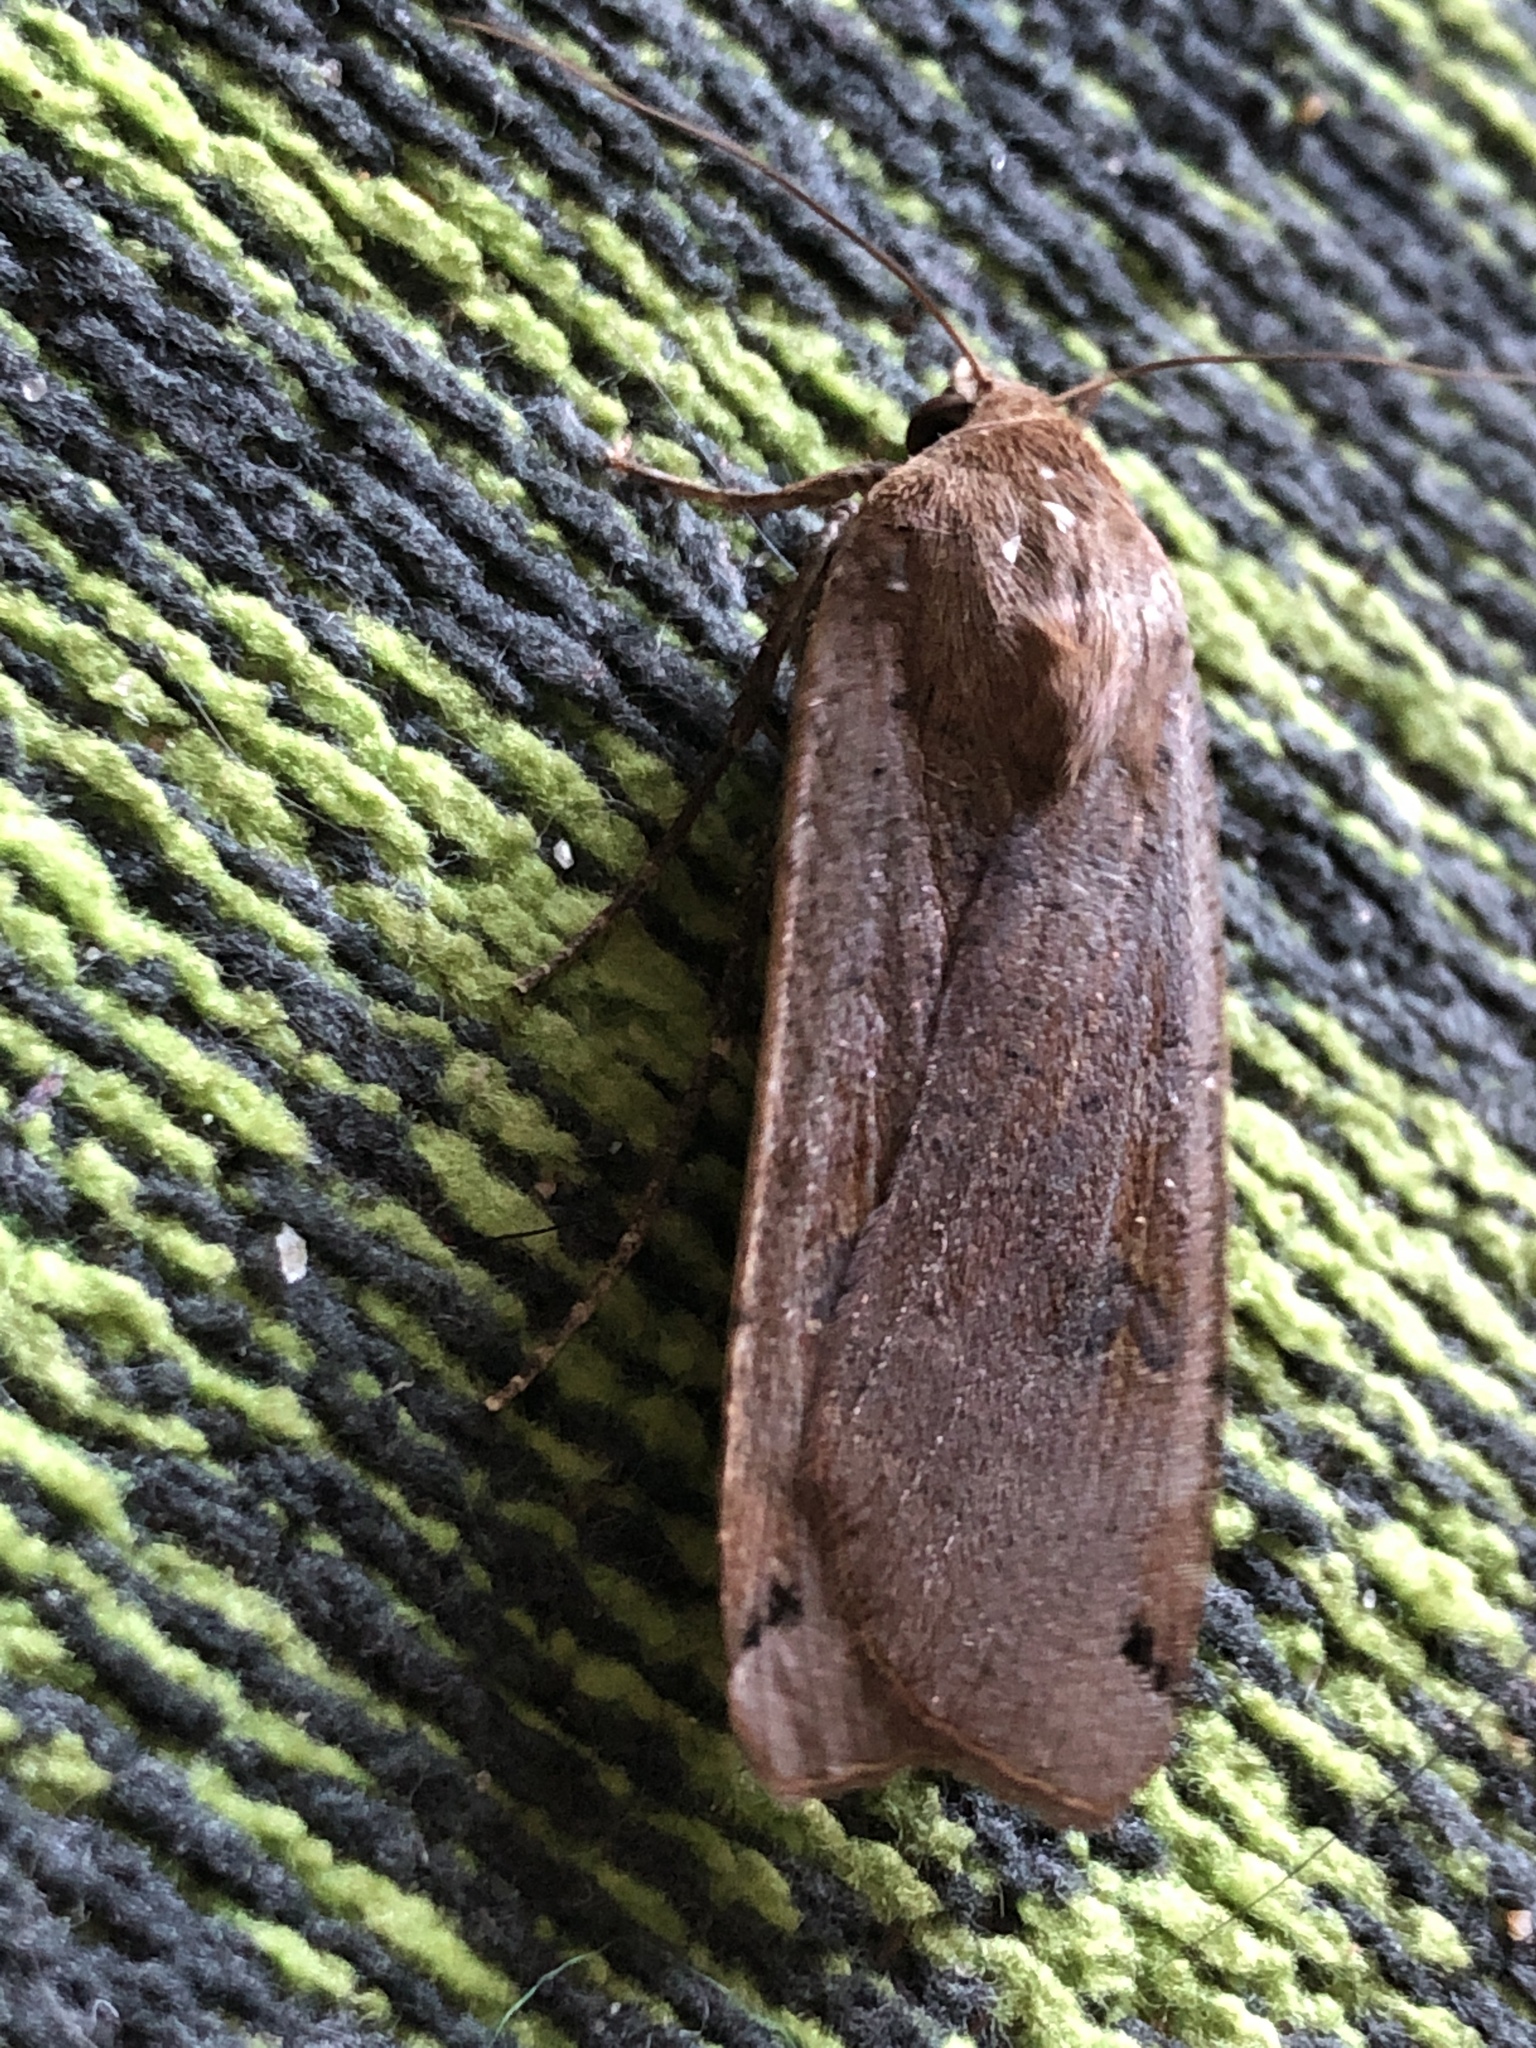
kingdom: Animalia
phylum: Arthropoda
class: Insecta
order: Lepidoptera
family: Noctuidae
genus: Noctua
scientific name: Noctua pronuba
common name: Large yellow underwing
